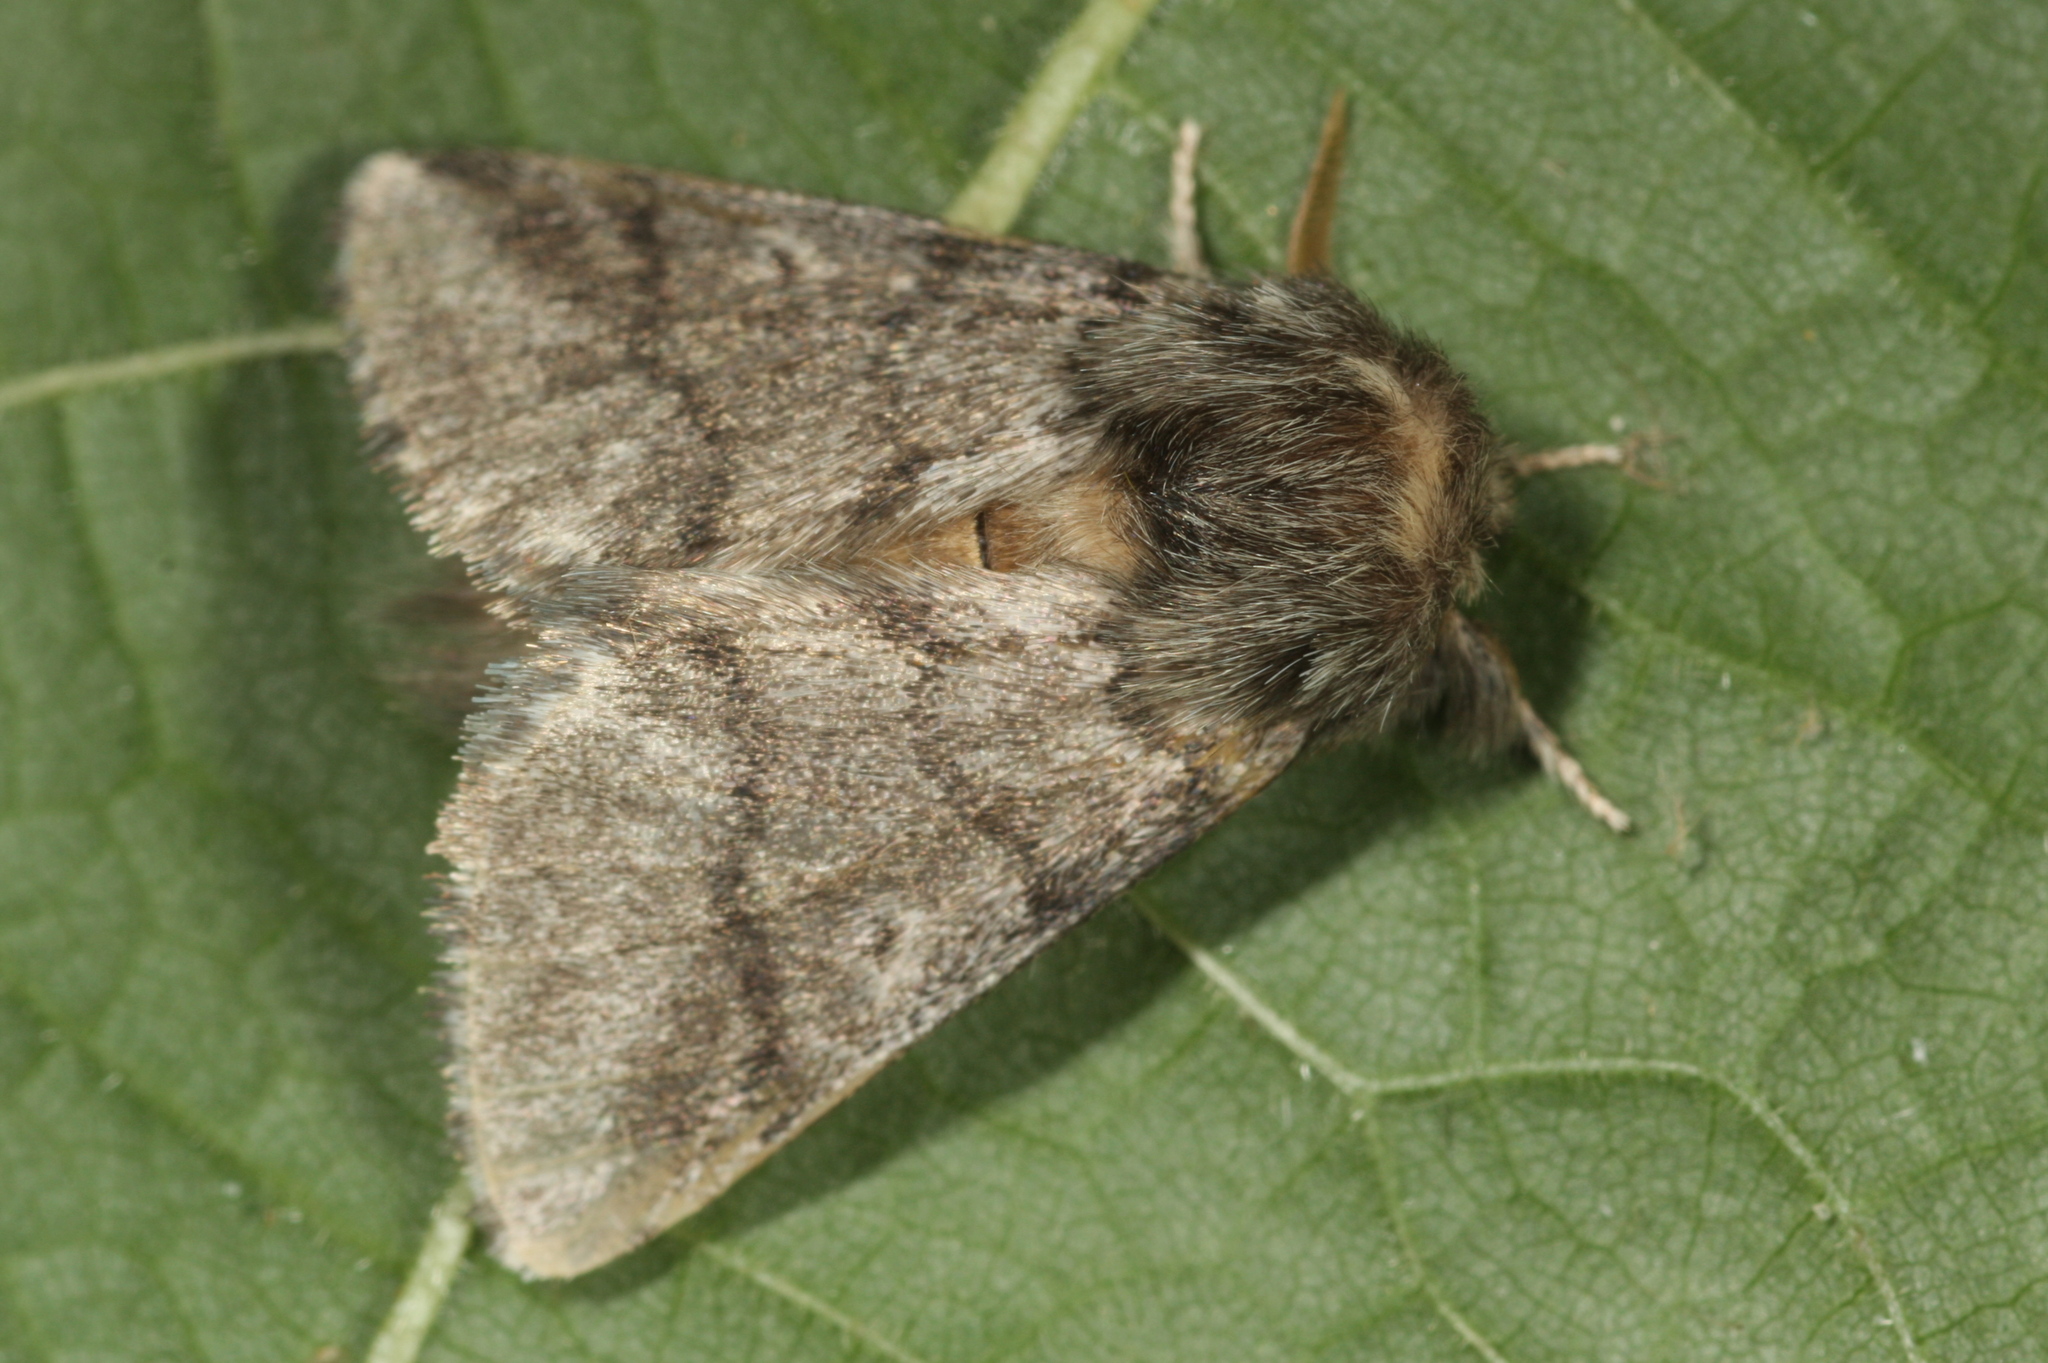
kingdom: Animalia
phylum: Arthropoda
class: Insecta
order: Lepidoptera
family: Notodontidae
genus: Thaumetopoea
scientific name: Thaumetopoea processionea
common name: Oak processionea
